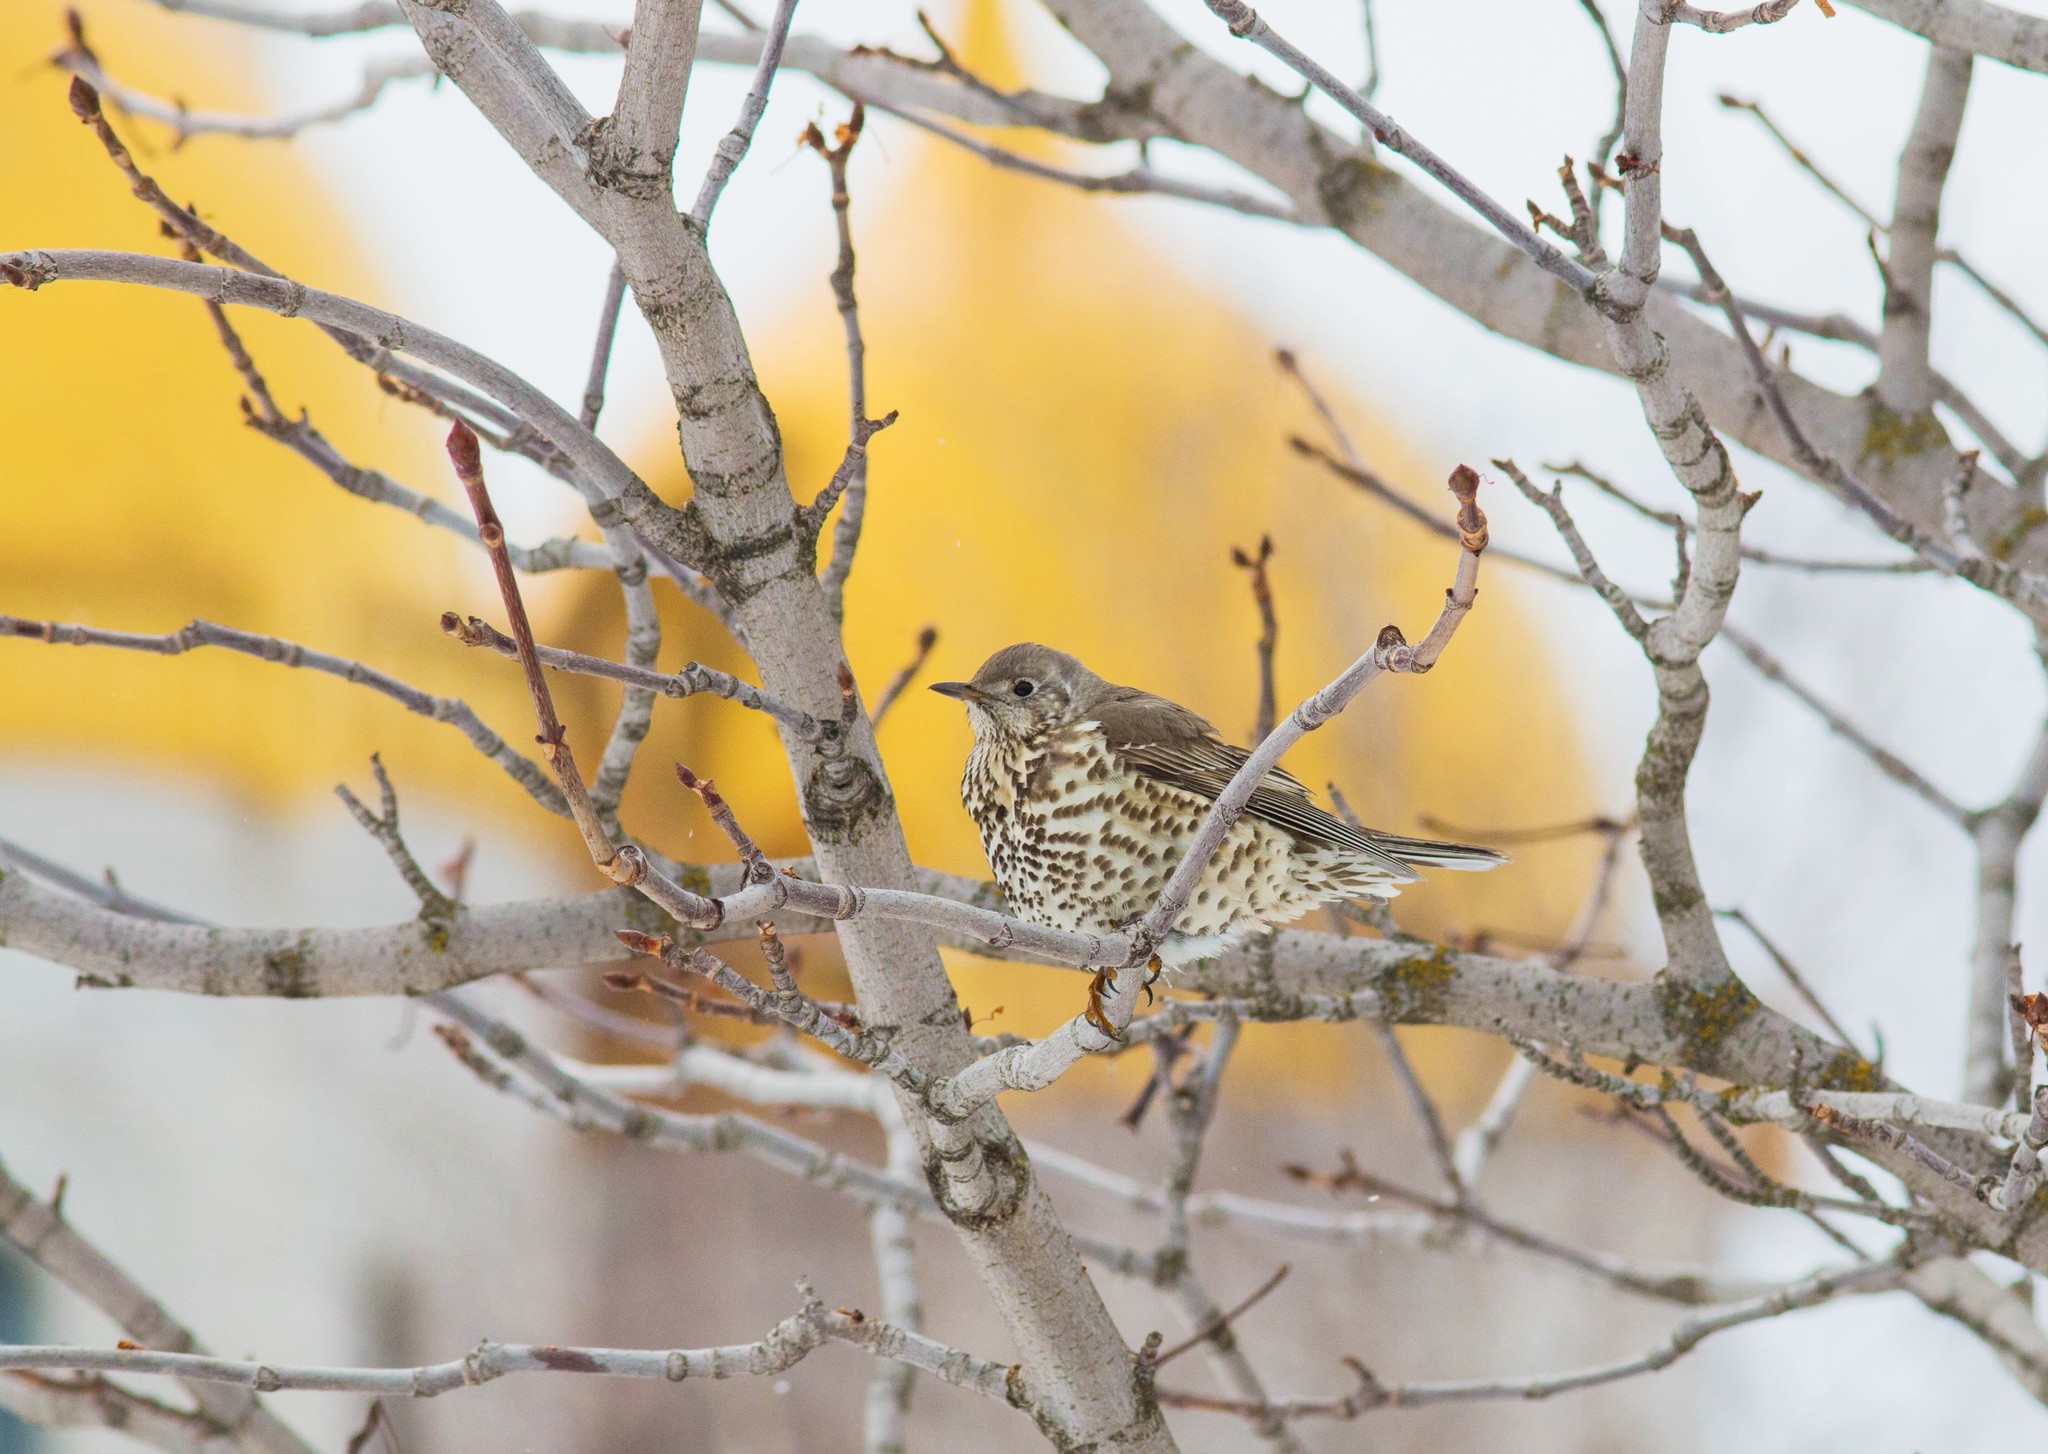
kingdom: Animalia
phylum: Chordata
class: Aves
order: Passeriformes
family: Turdidae
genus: Turdus
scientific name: Turdus viscivorus
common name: Mistle thrush
